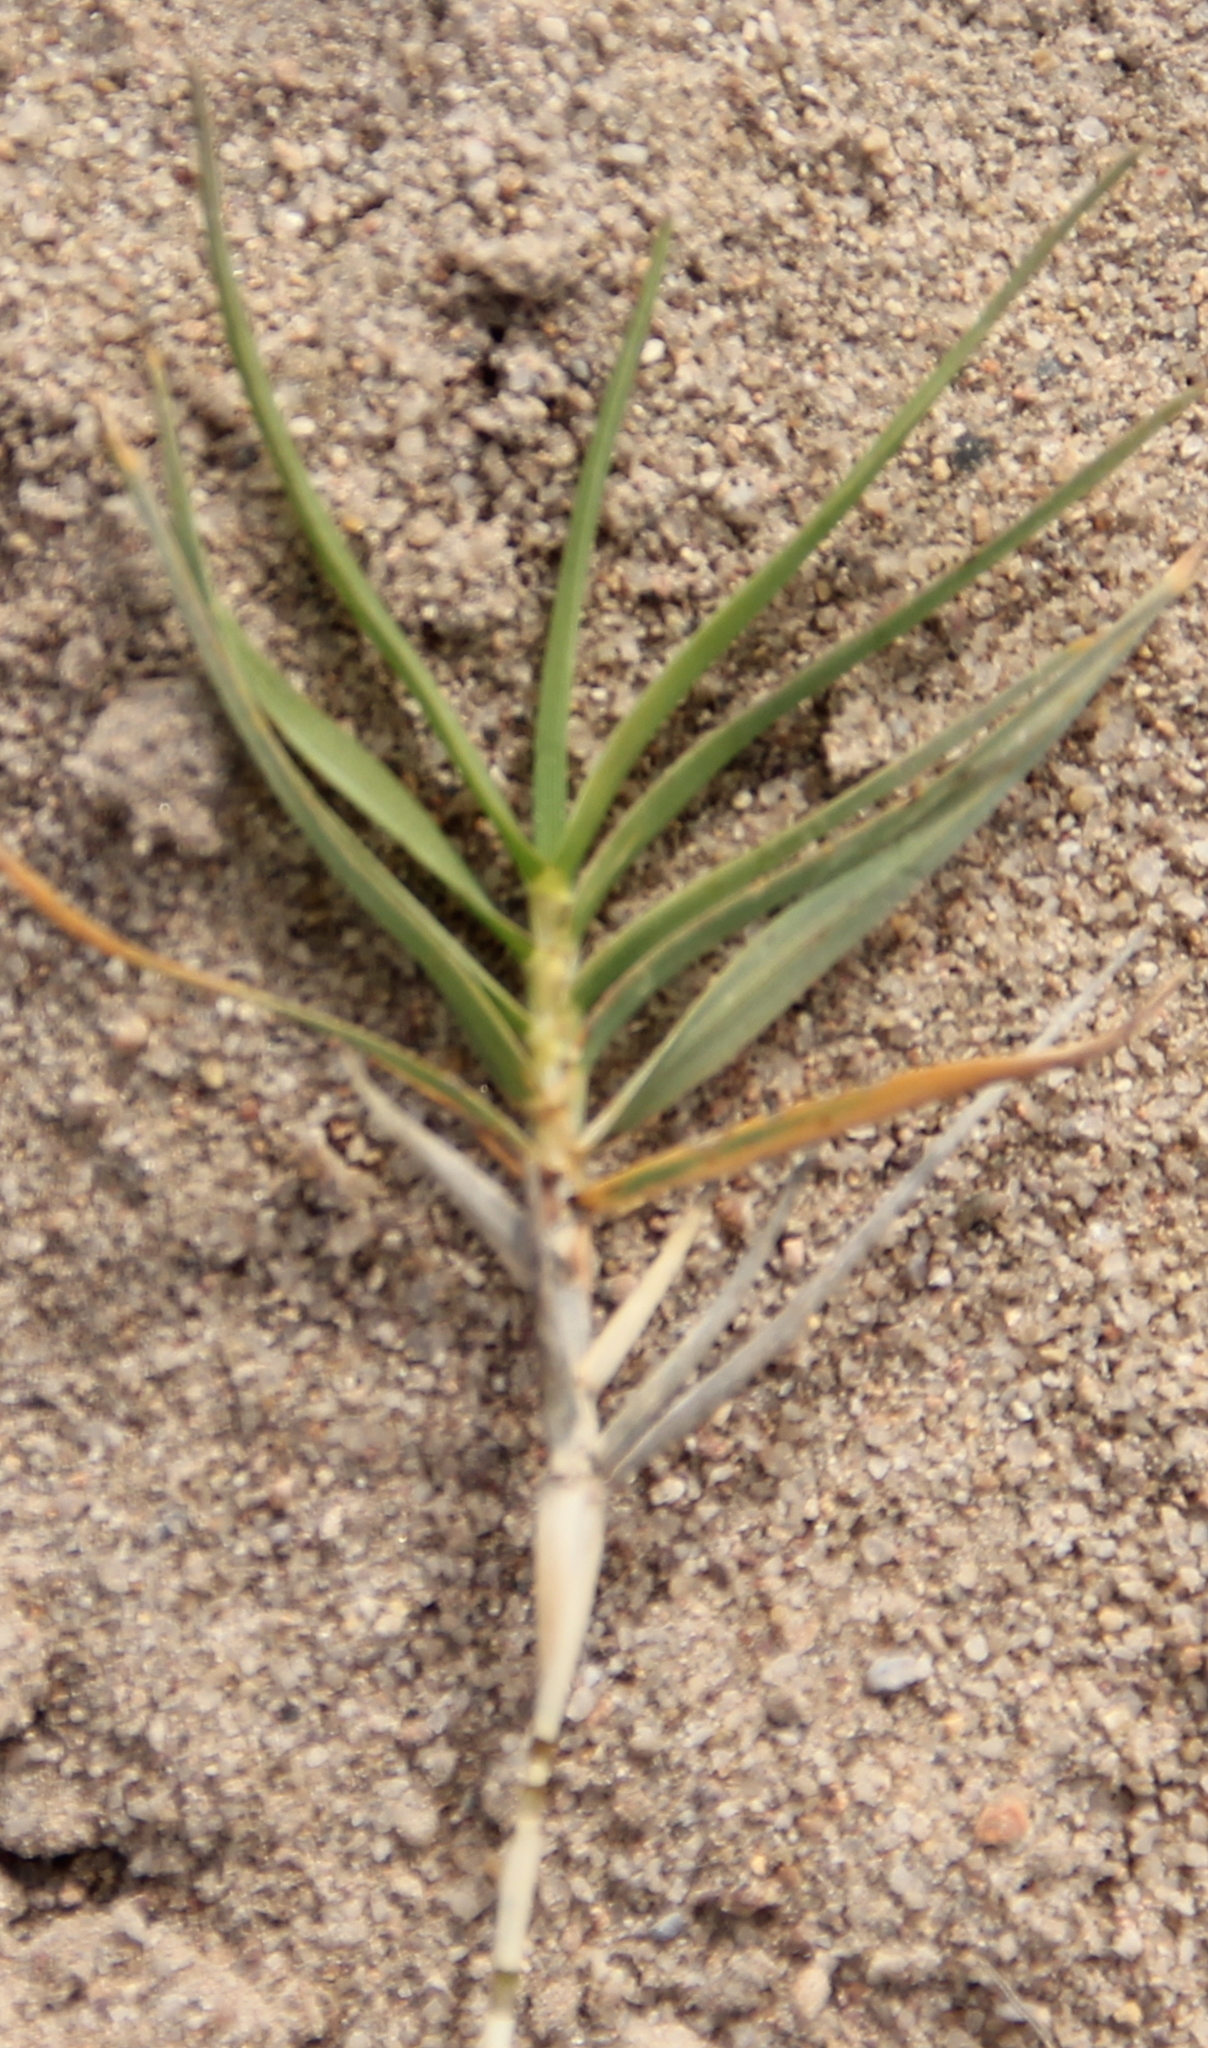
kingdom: Plantae
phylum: Tracheophyta
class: Liliopsida
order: Poales
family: Poaceae
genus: Distichlis
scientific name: Distichlis spicata
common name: Saltgrass
